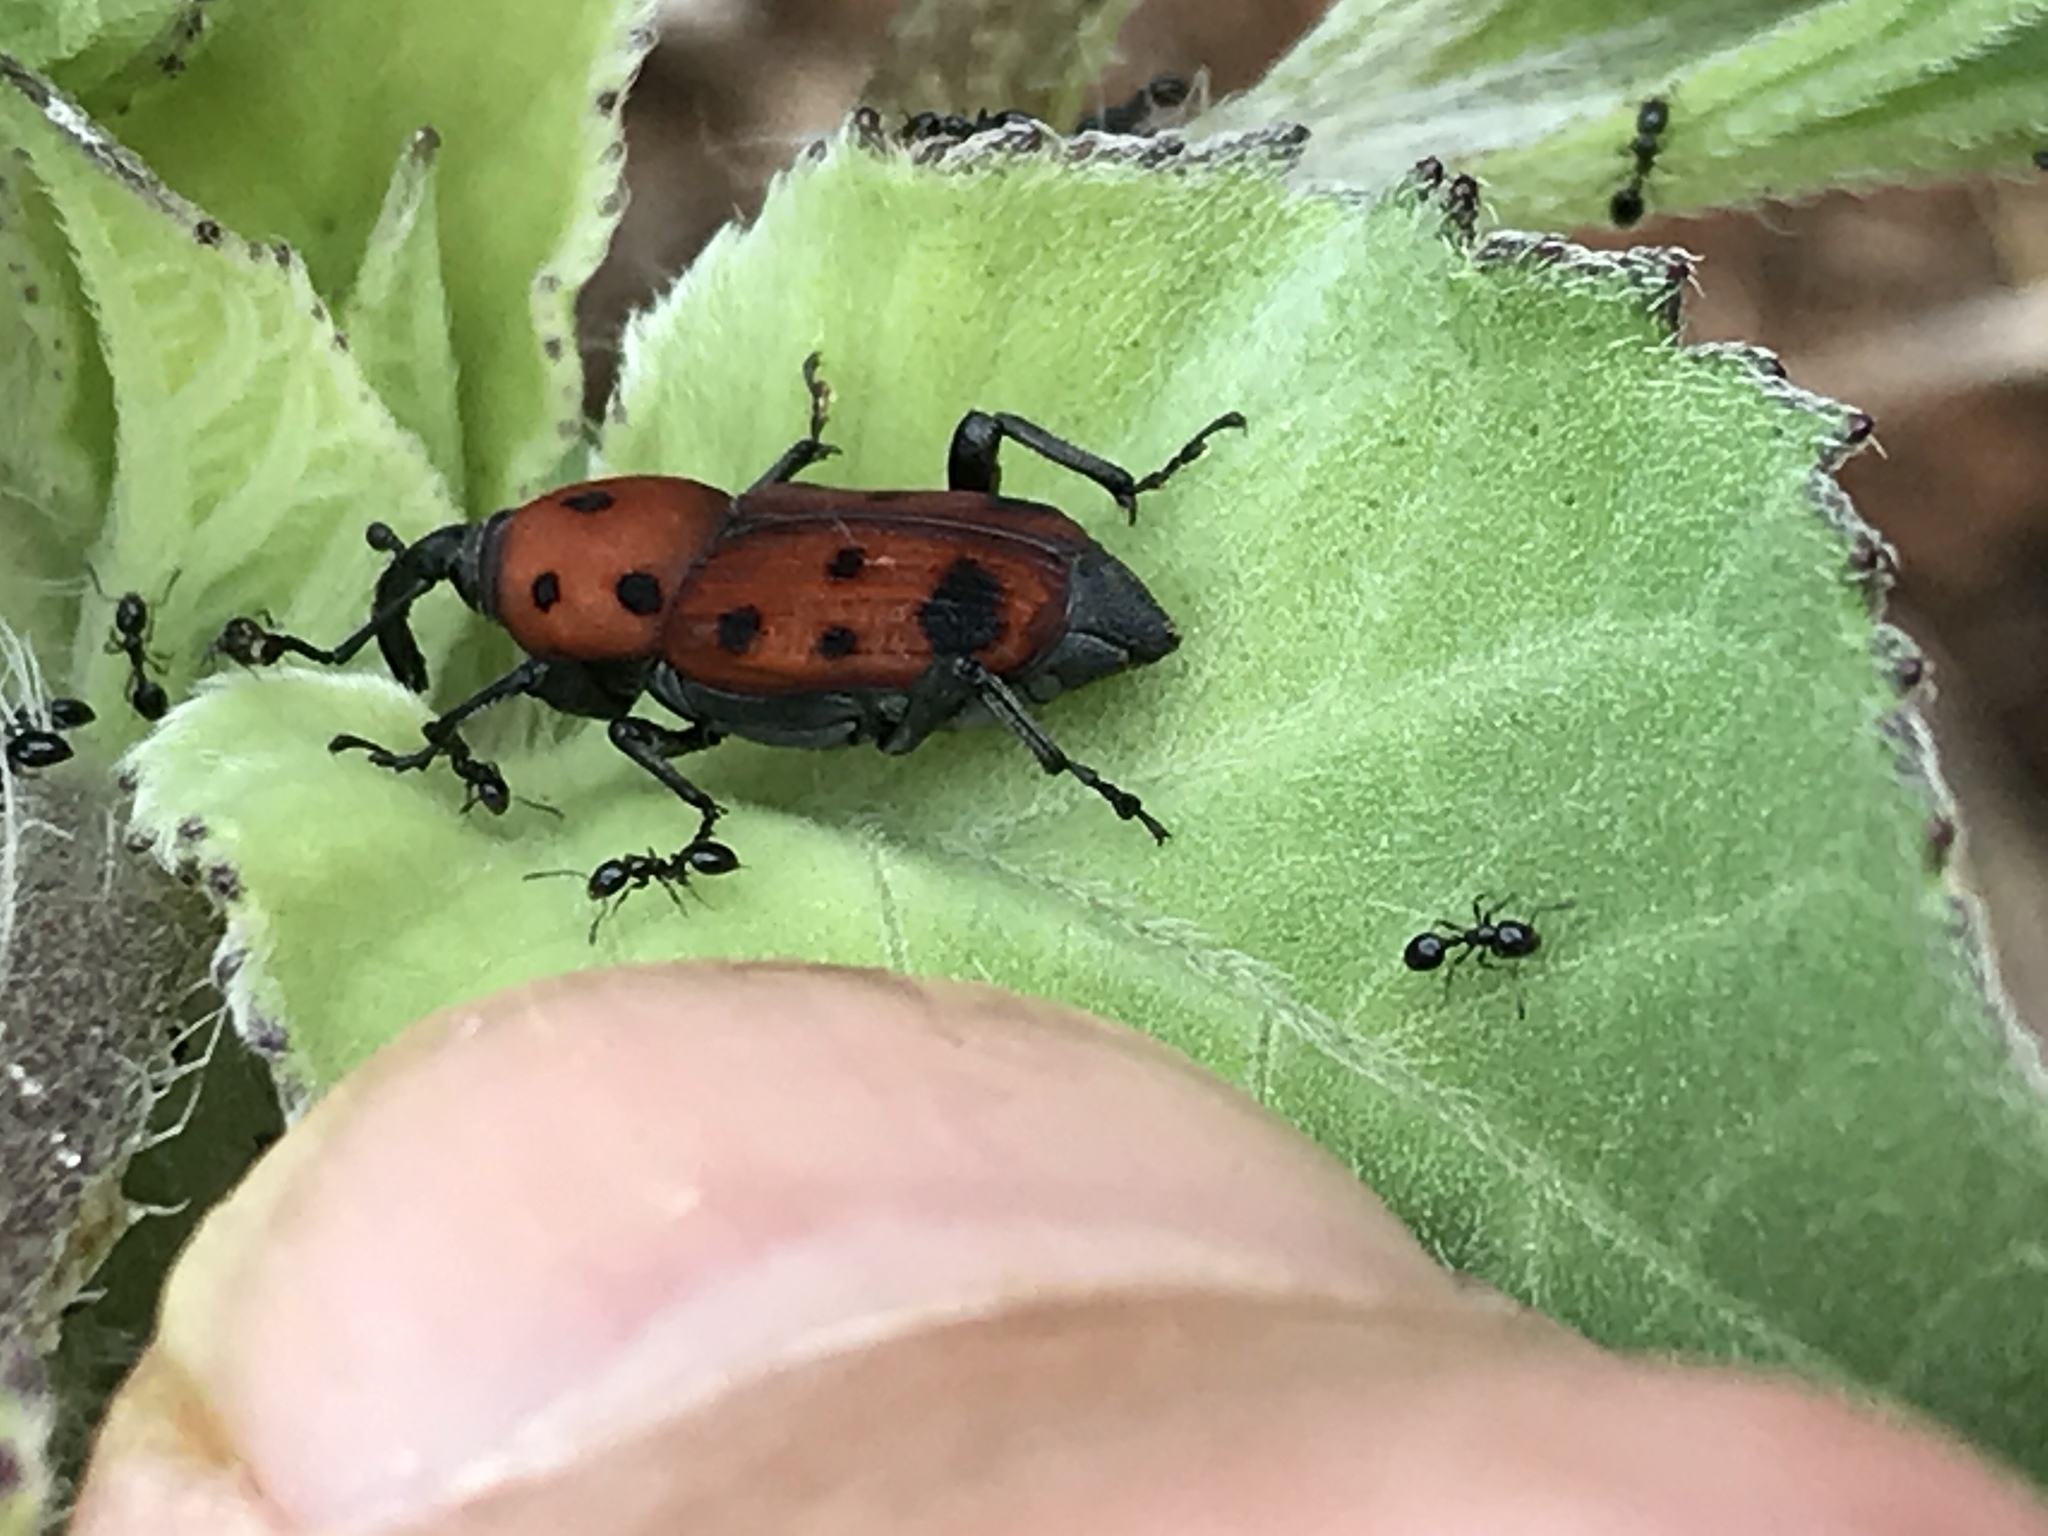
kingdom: Animalia
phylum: Arthropoda
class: Insecta
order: Coleoptera
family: Dryophthoridae
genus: Rhodobaenus
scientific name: Rhodobaenus tredecimpunctatus
